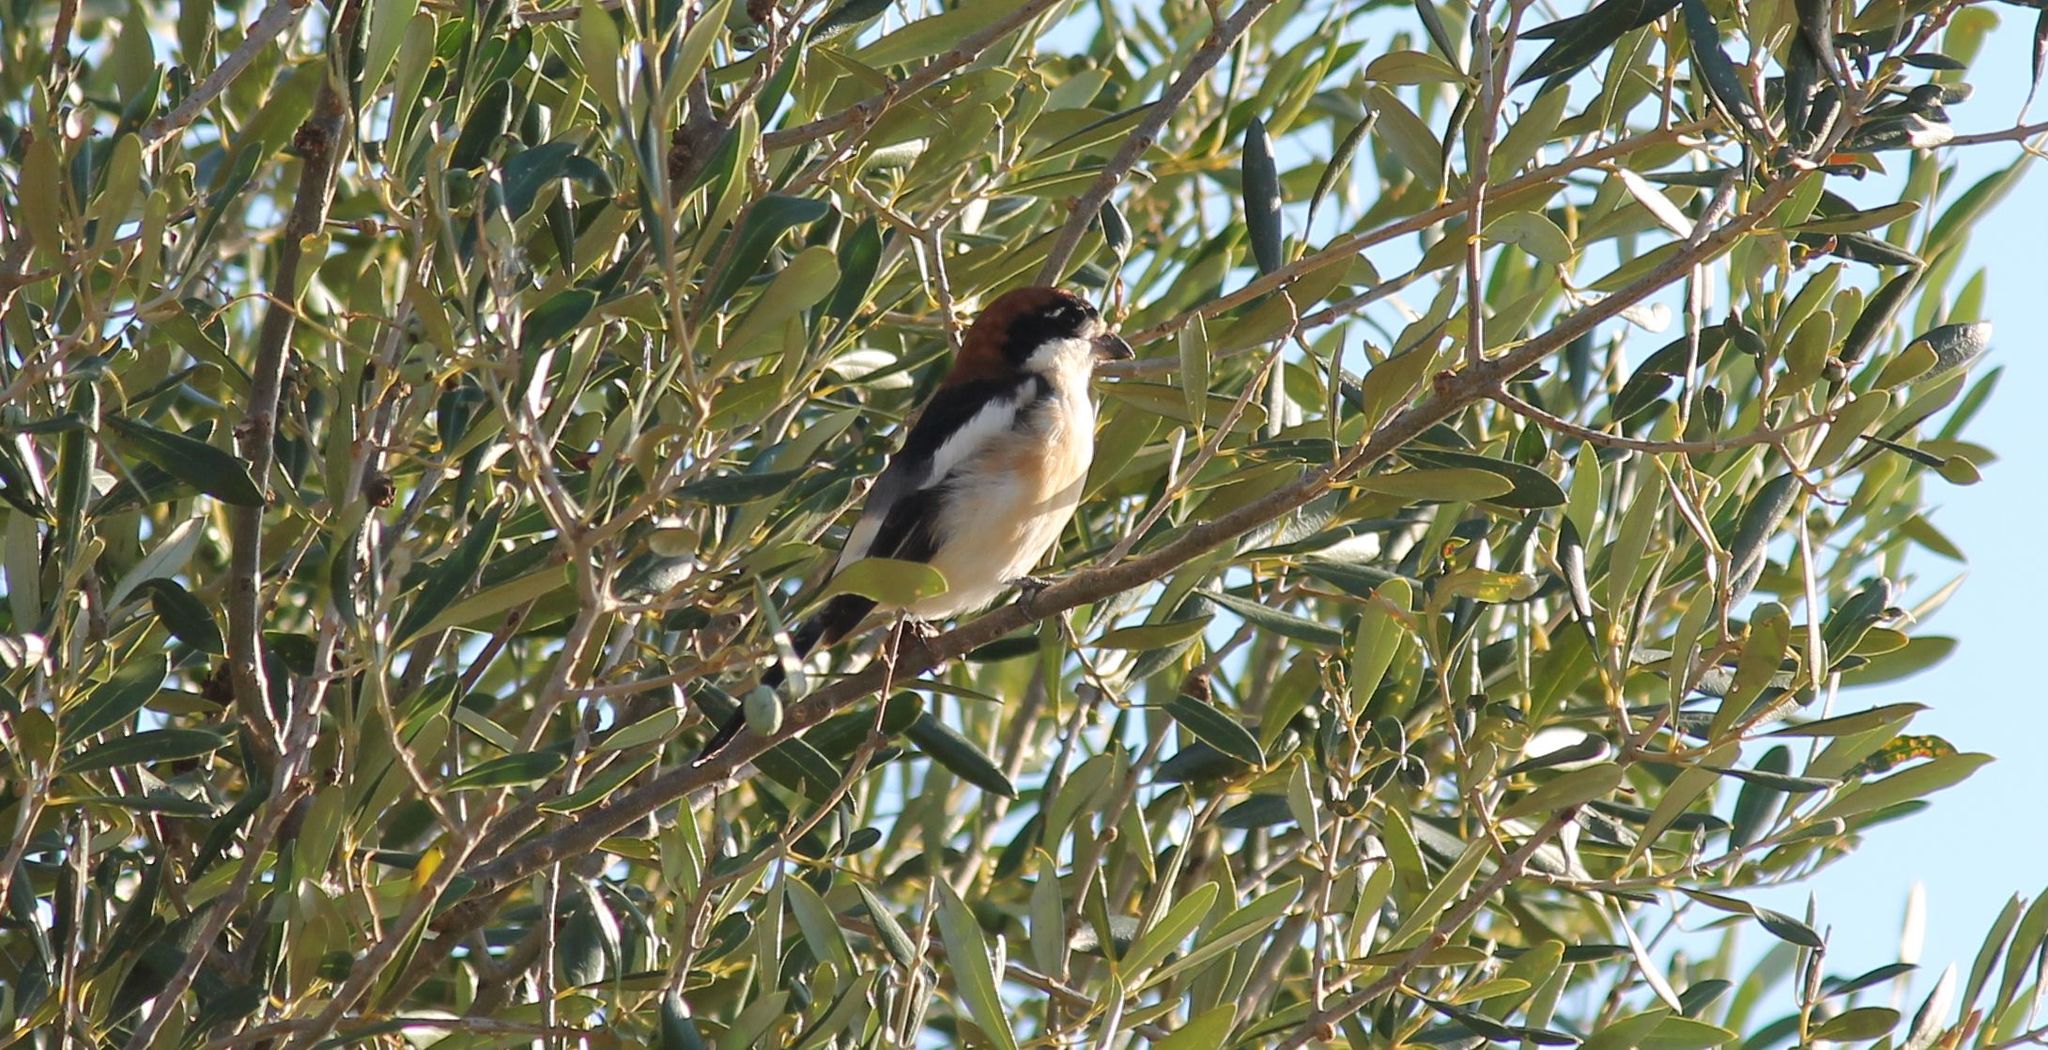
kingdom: Animalia
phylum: Chordata
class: Aves
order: Passeriformes
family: Laniidae
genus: Lanius
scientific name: Lanius senator
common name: Woodchat shrike
